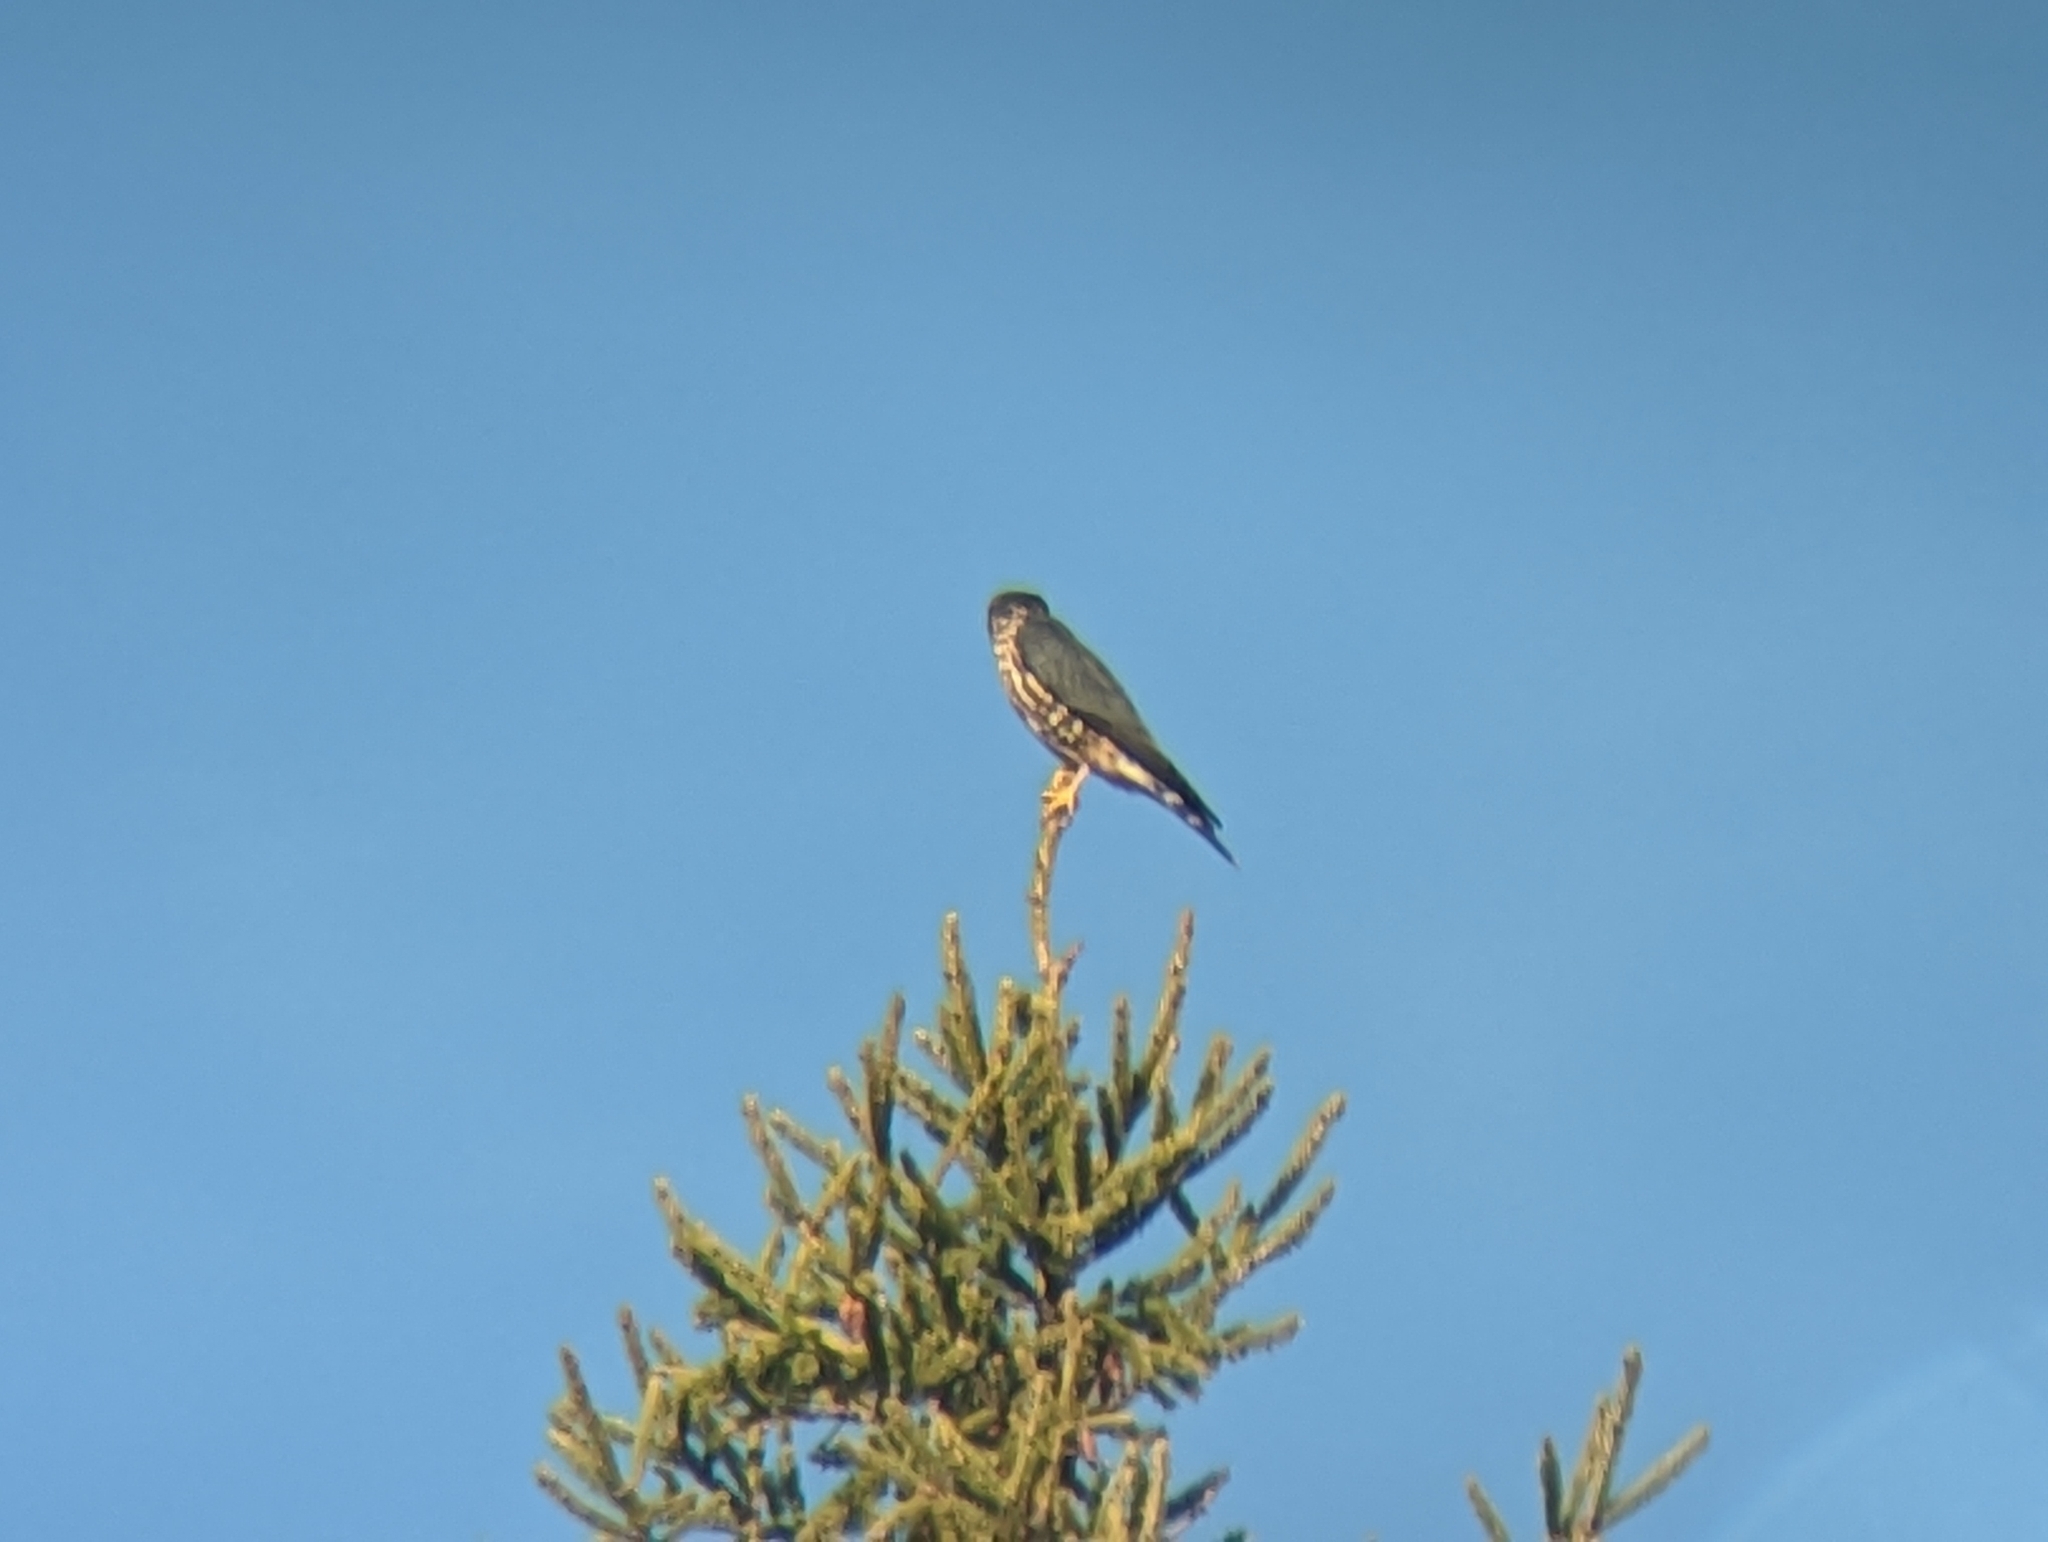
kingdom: Animalia
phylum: Chordata
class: Aves
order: Falconiformes
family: Falconidae
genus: Falco
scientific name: Falco columbarius
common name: Merlin
